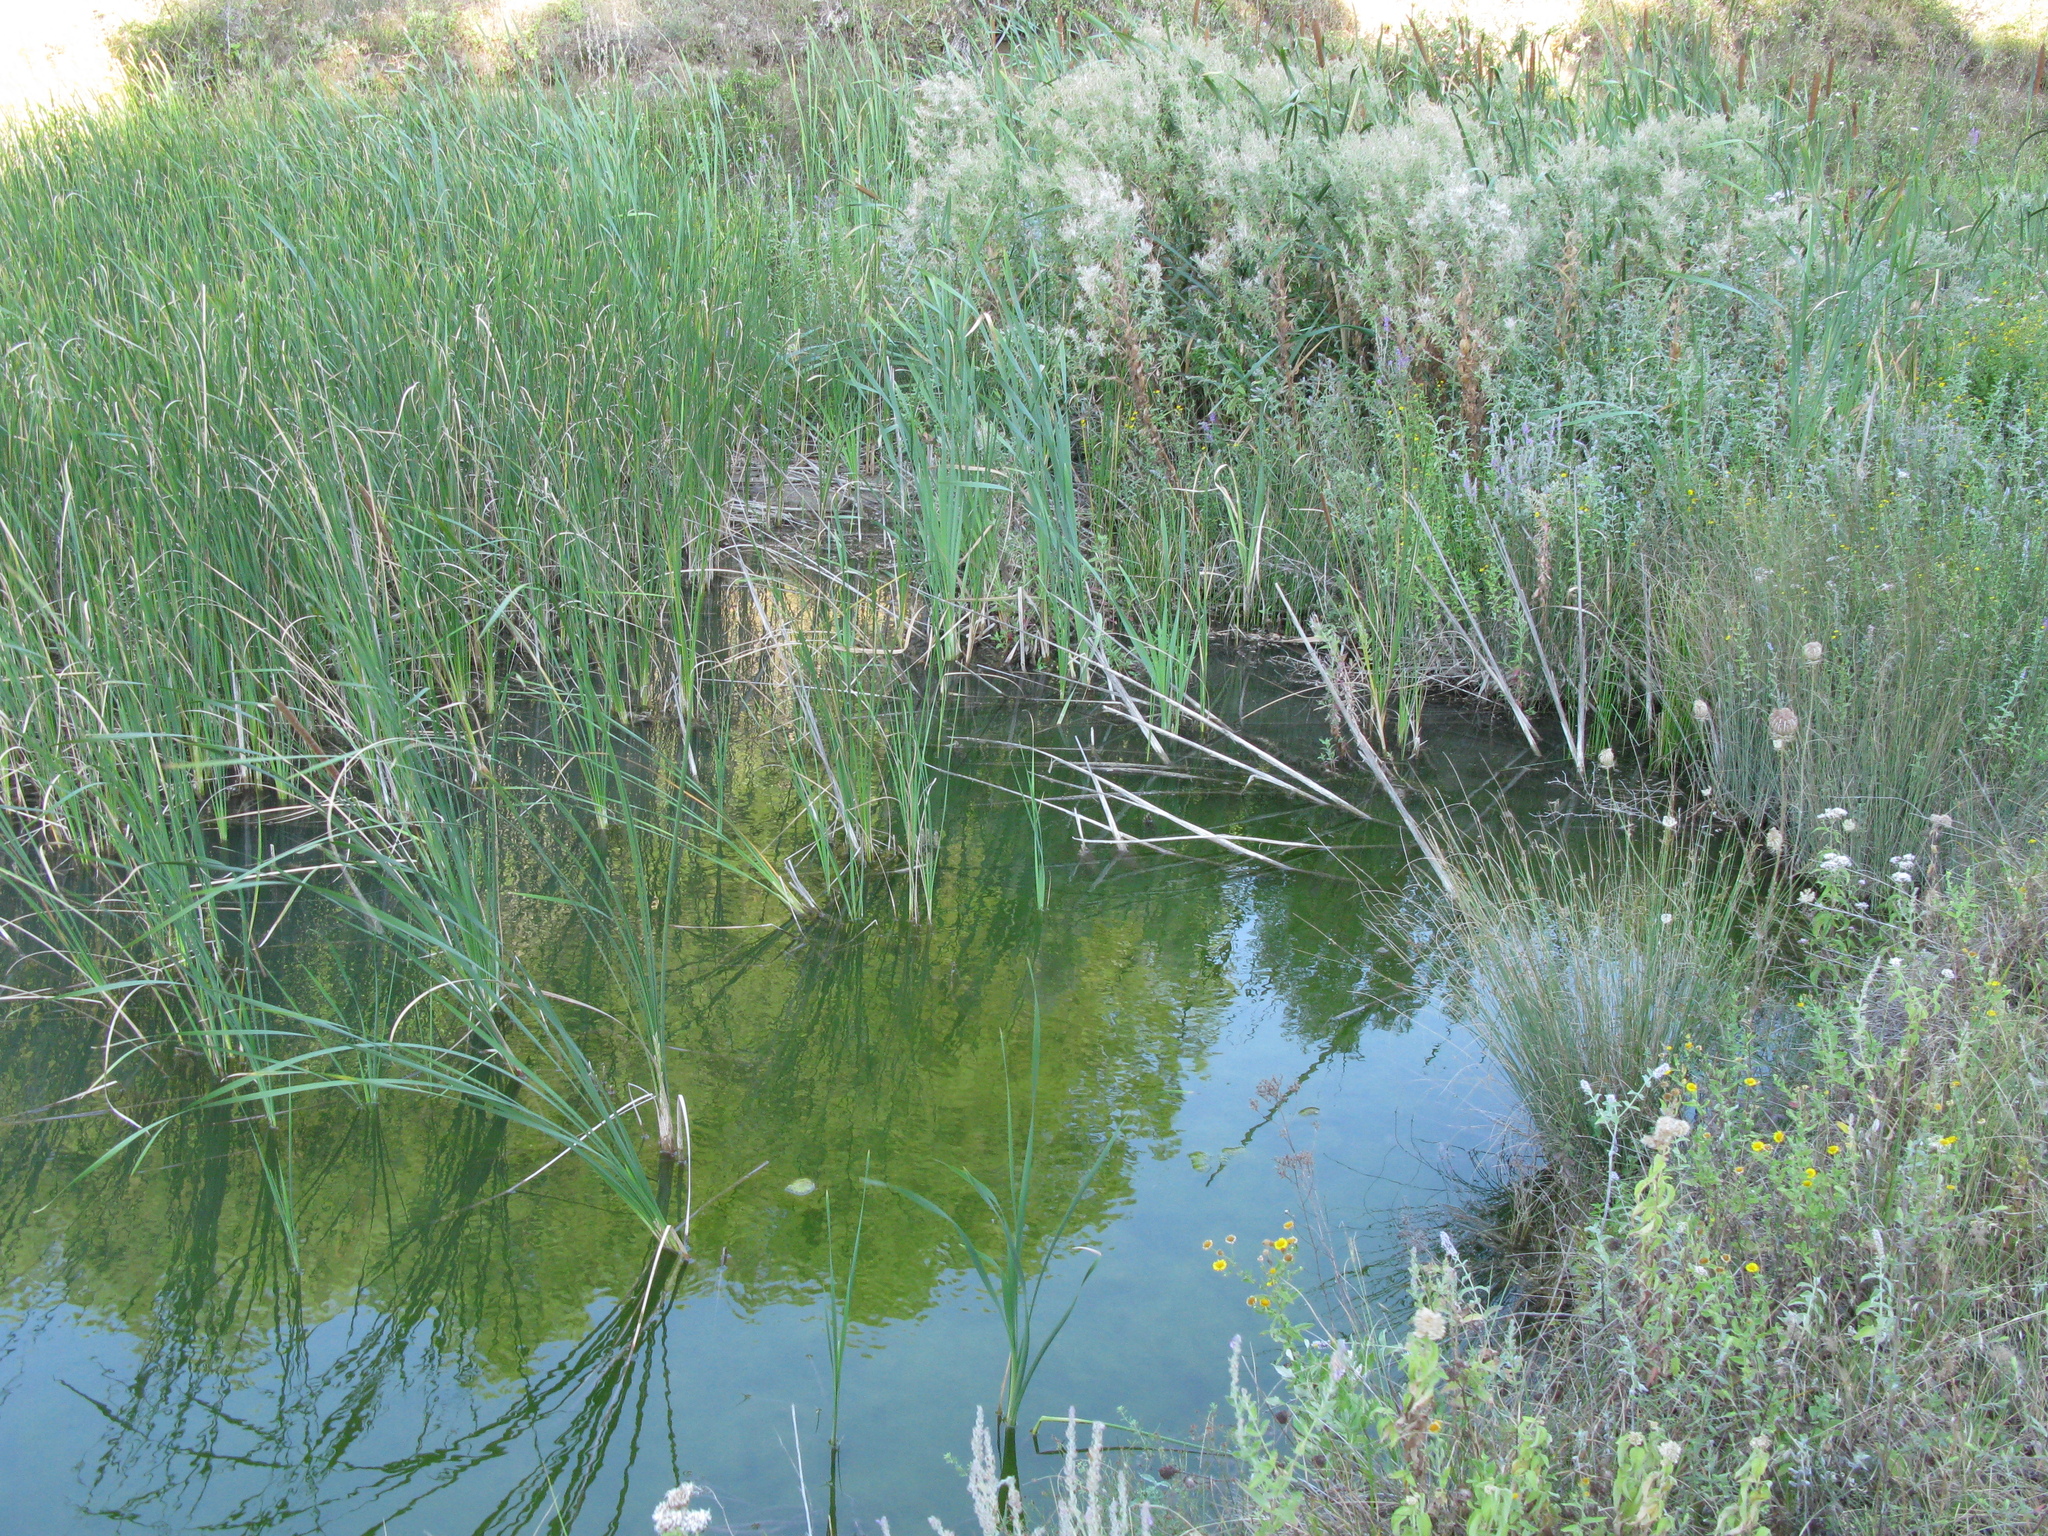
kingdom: Plantae
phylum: Tracheophyta
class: Liliopsida
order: Poales
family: Typhaceae
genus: Typha
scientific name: Typha angustifolia
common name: Lesser bulrush
